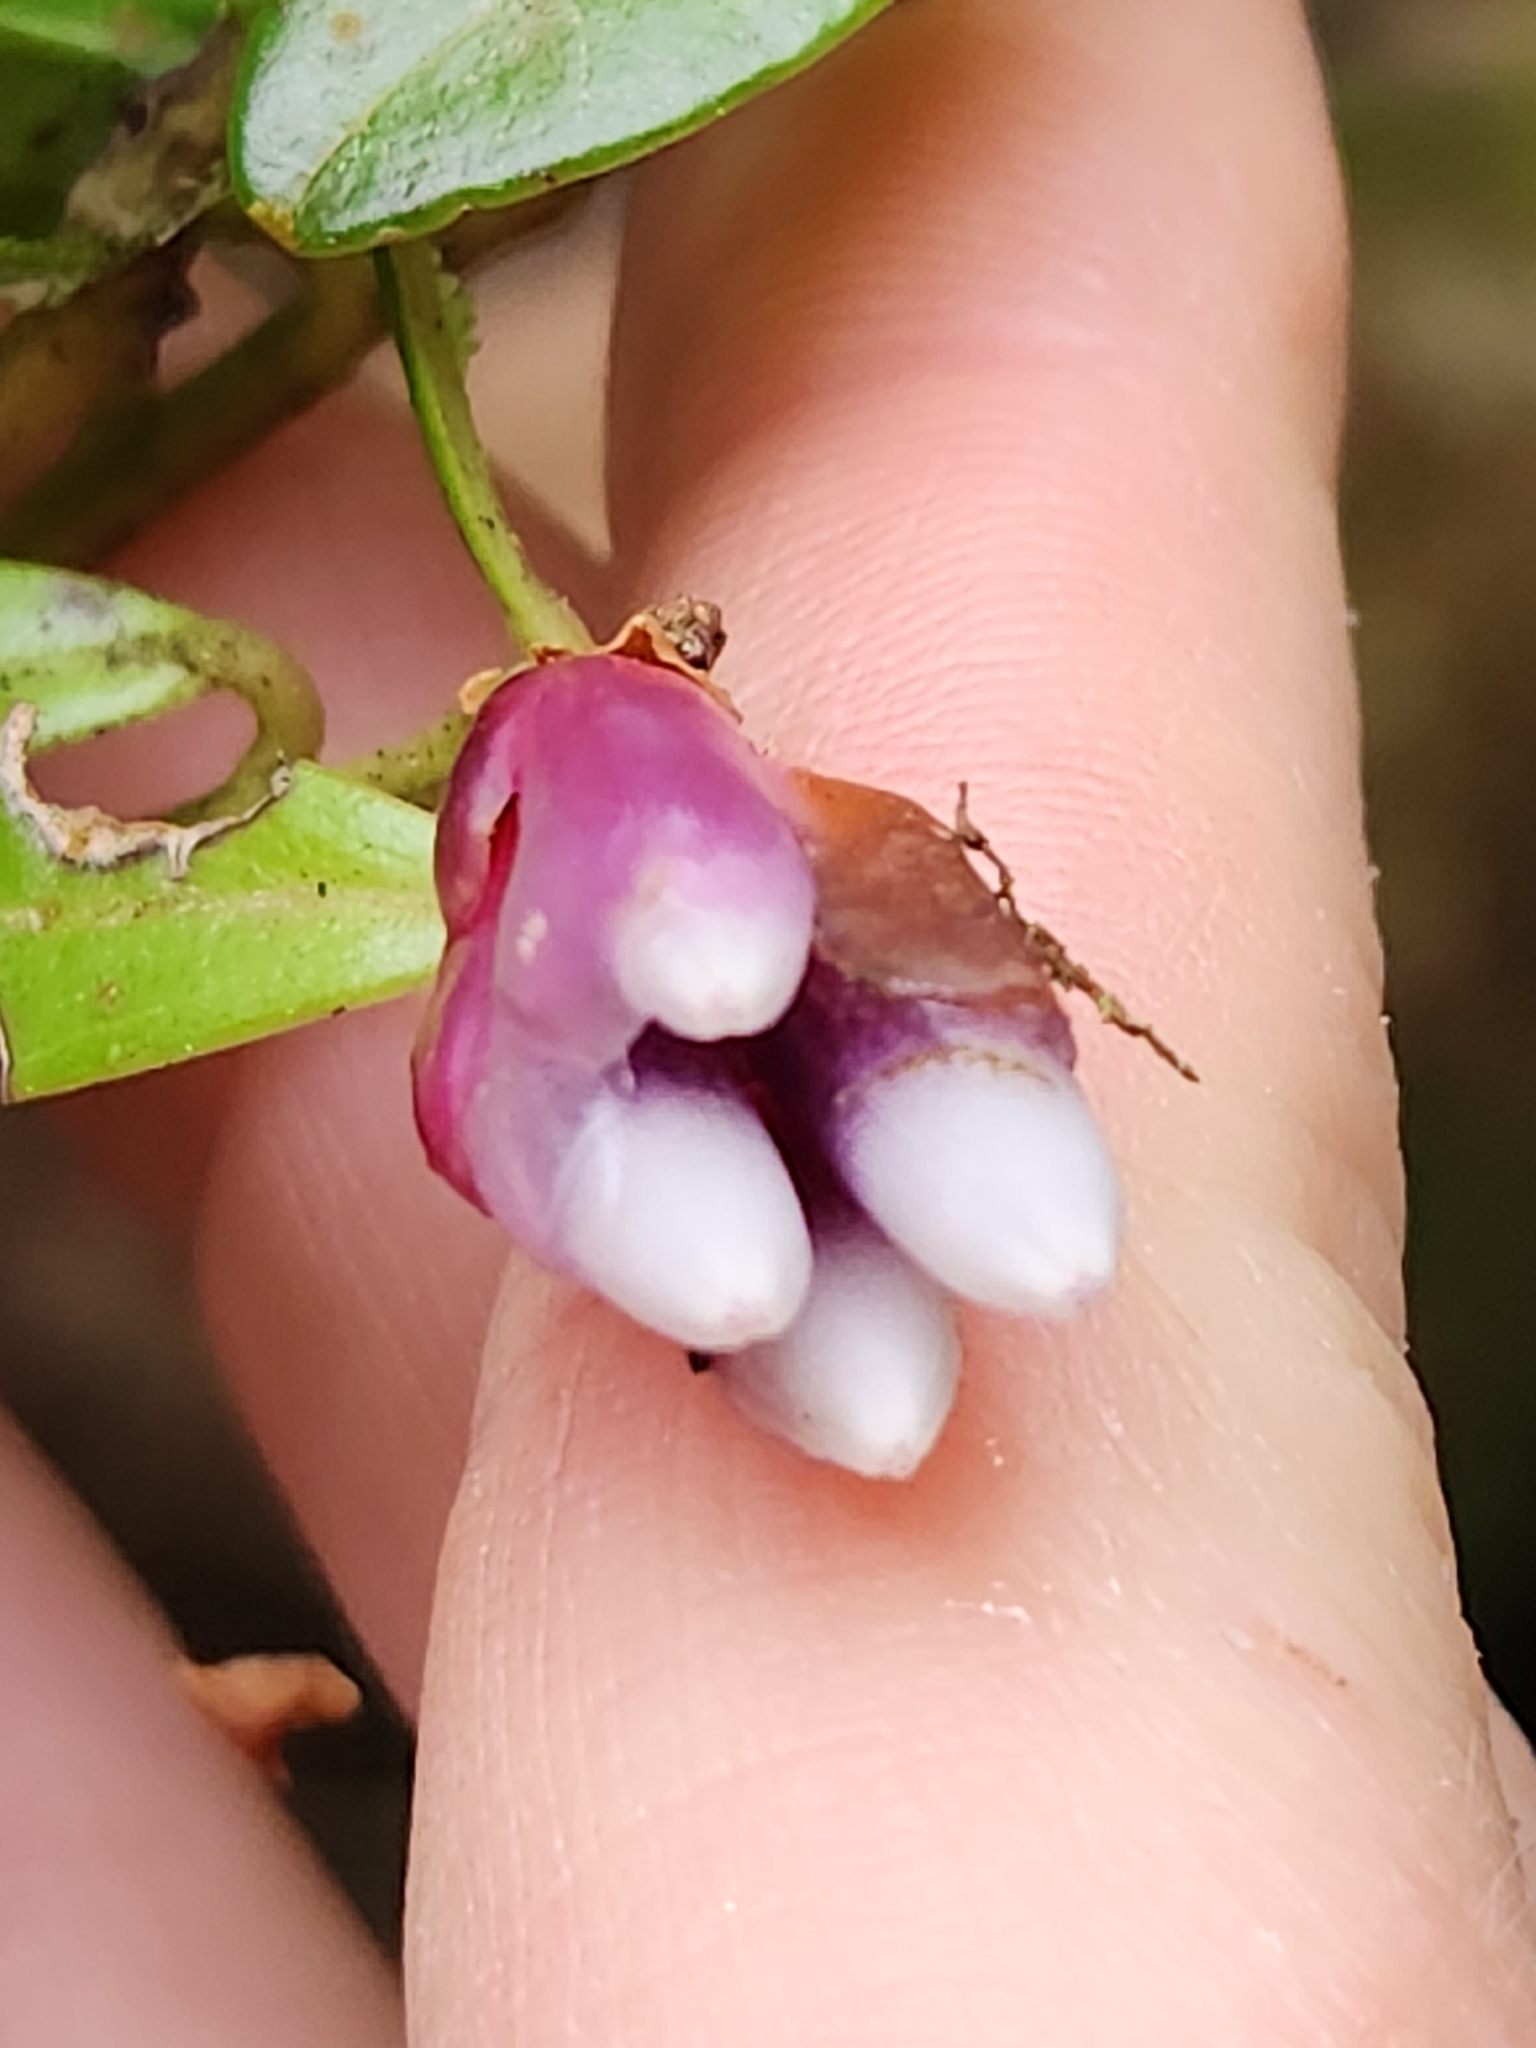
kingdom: Plantae
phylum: Tracheophyta
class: Magnoliopsida
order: Ericales
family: Ericaceae
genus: Cavendishia
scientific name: Cavendishia capitulata
